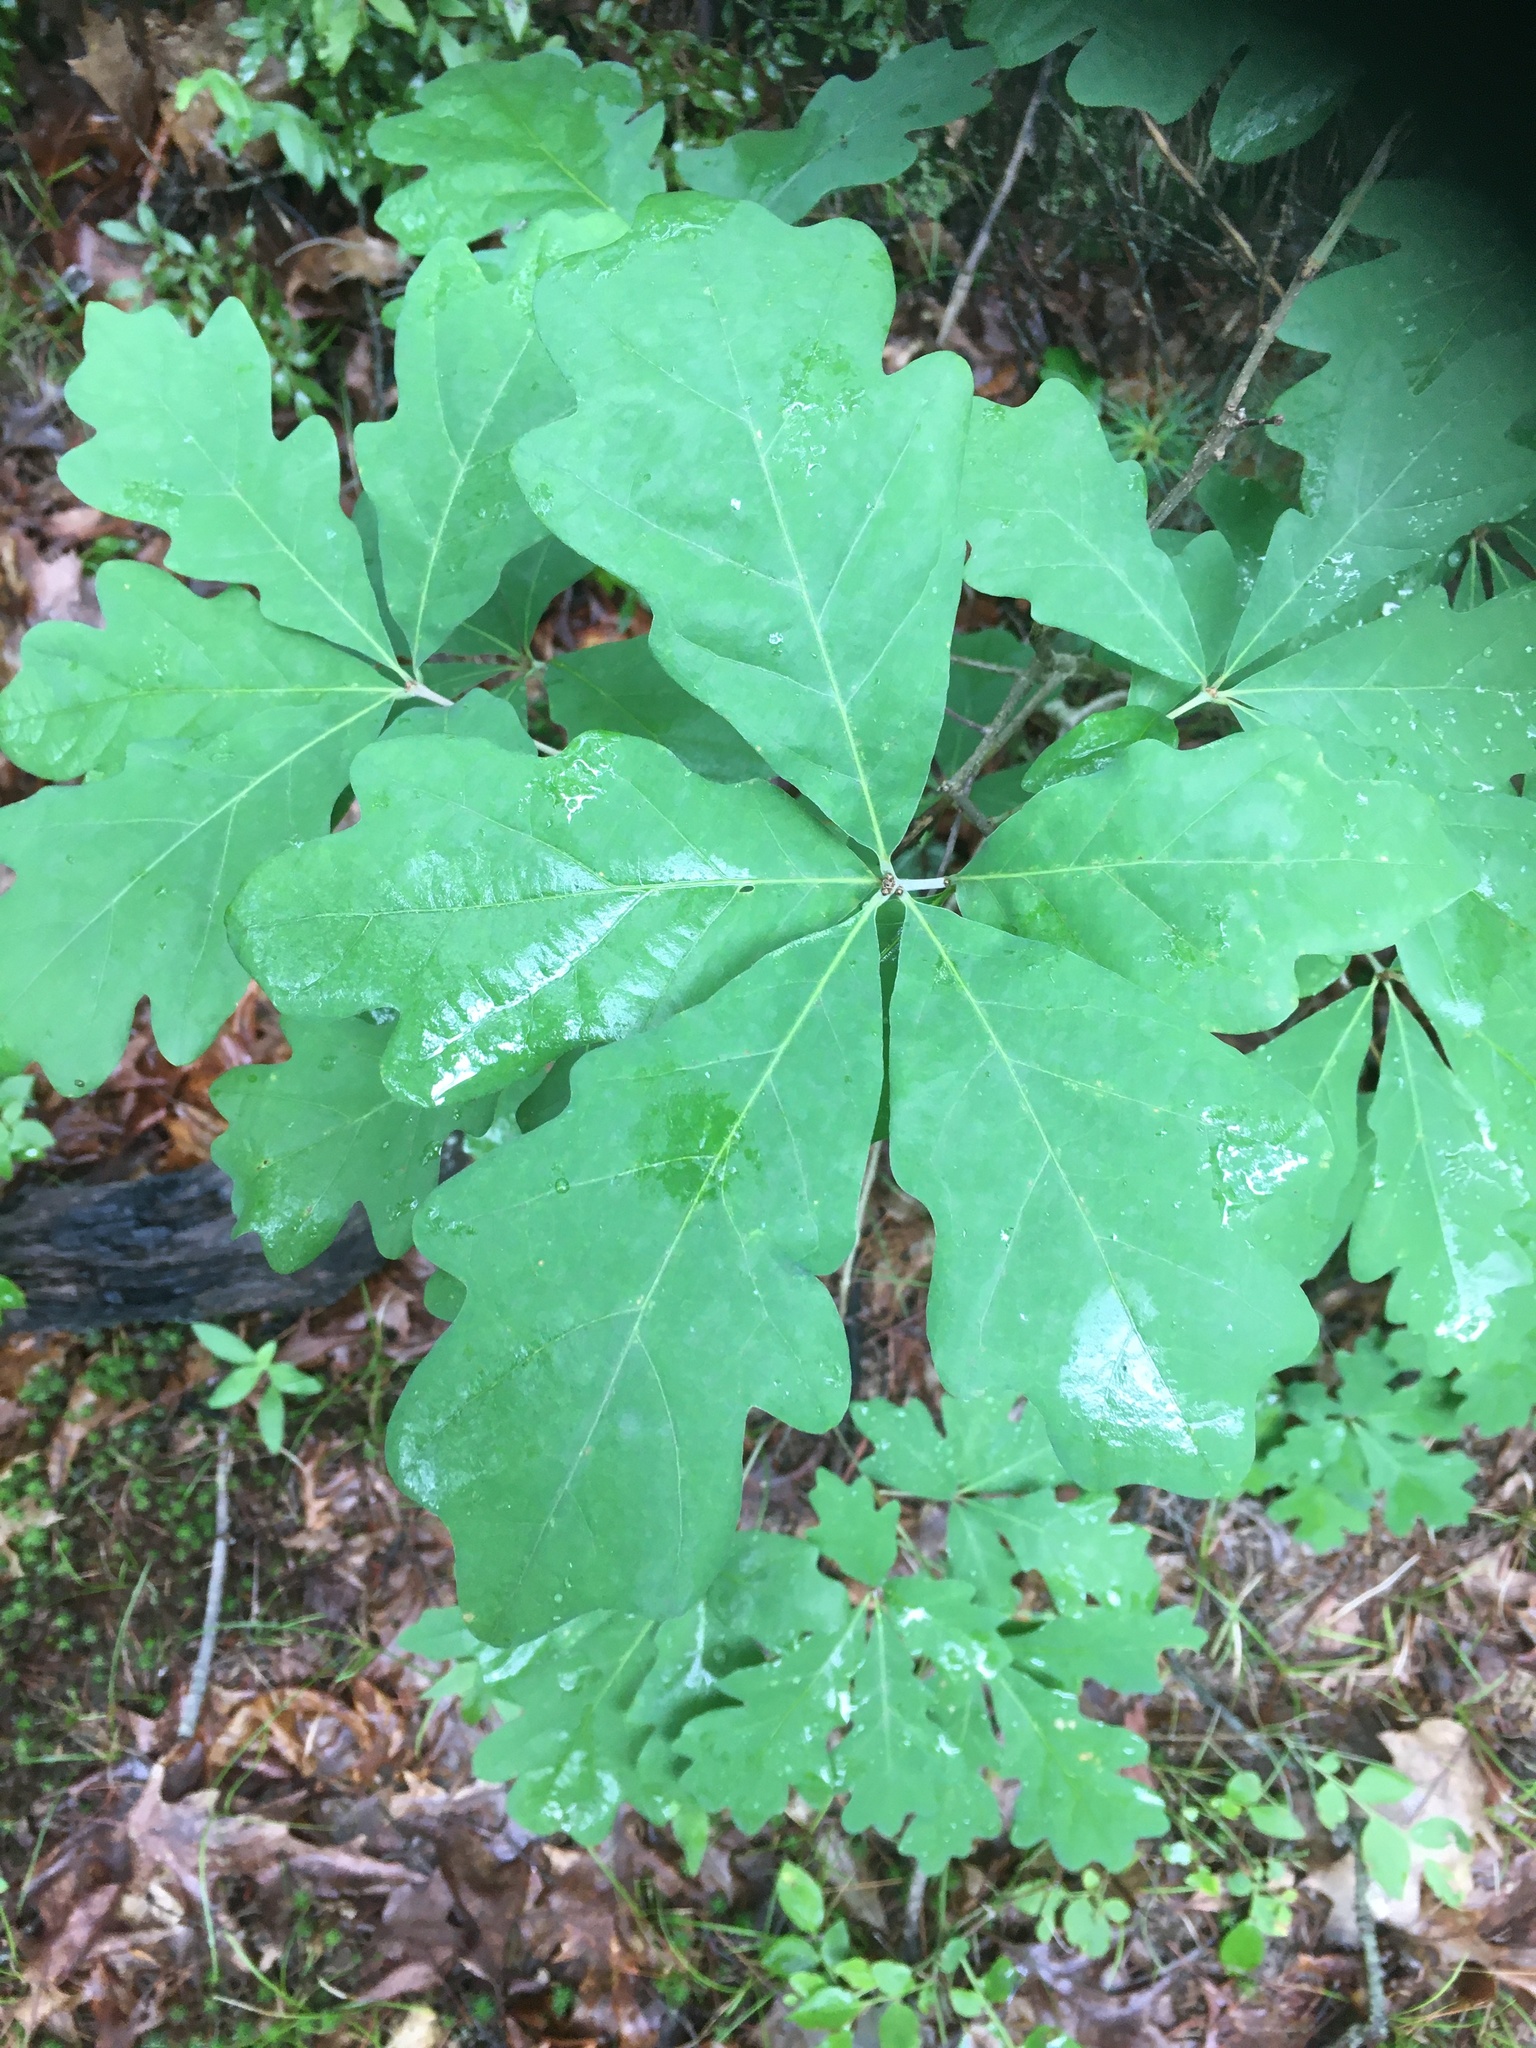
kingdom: Plantae
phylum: Tracheophyta
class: Magnoliopsida
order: Fagales
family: Fagaceae
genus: Quercus
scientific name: Quercus alba
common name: White oak
